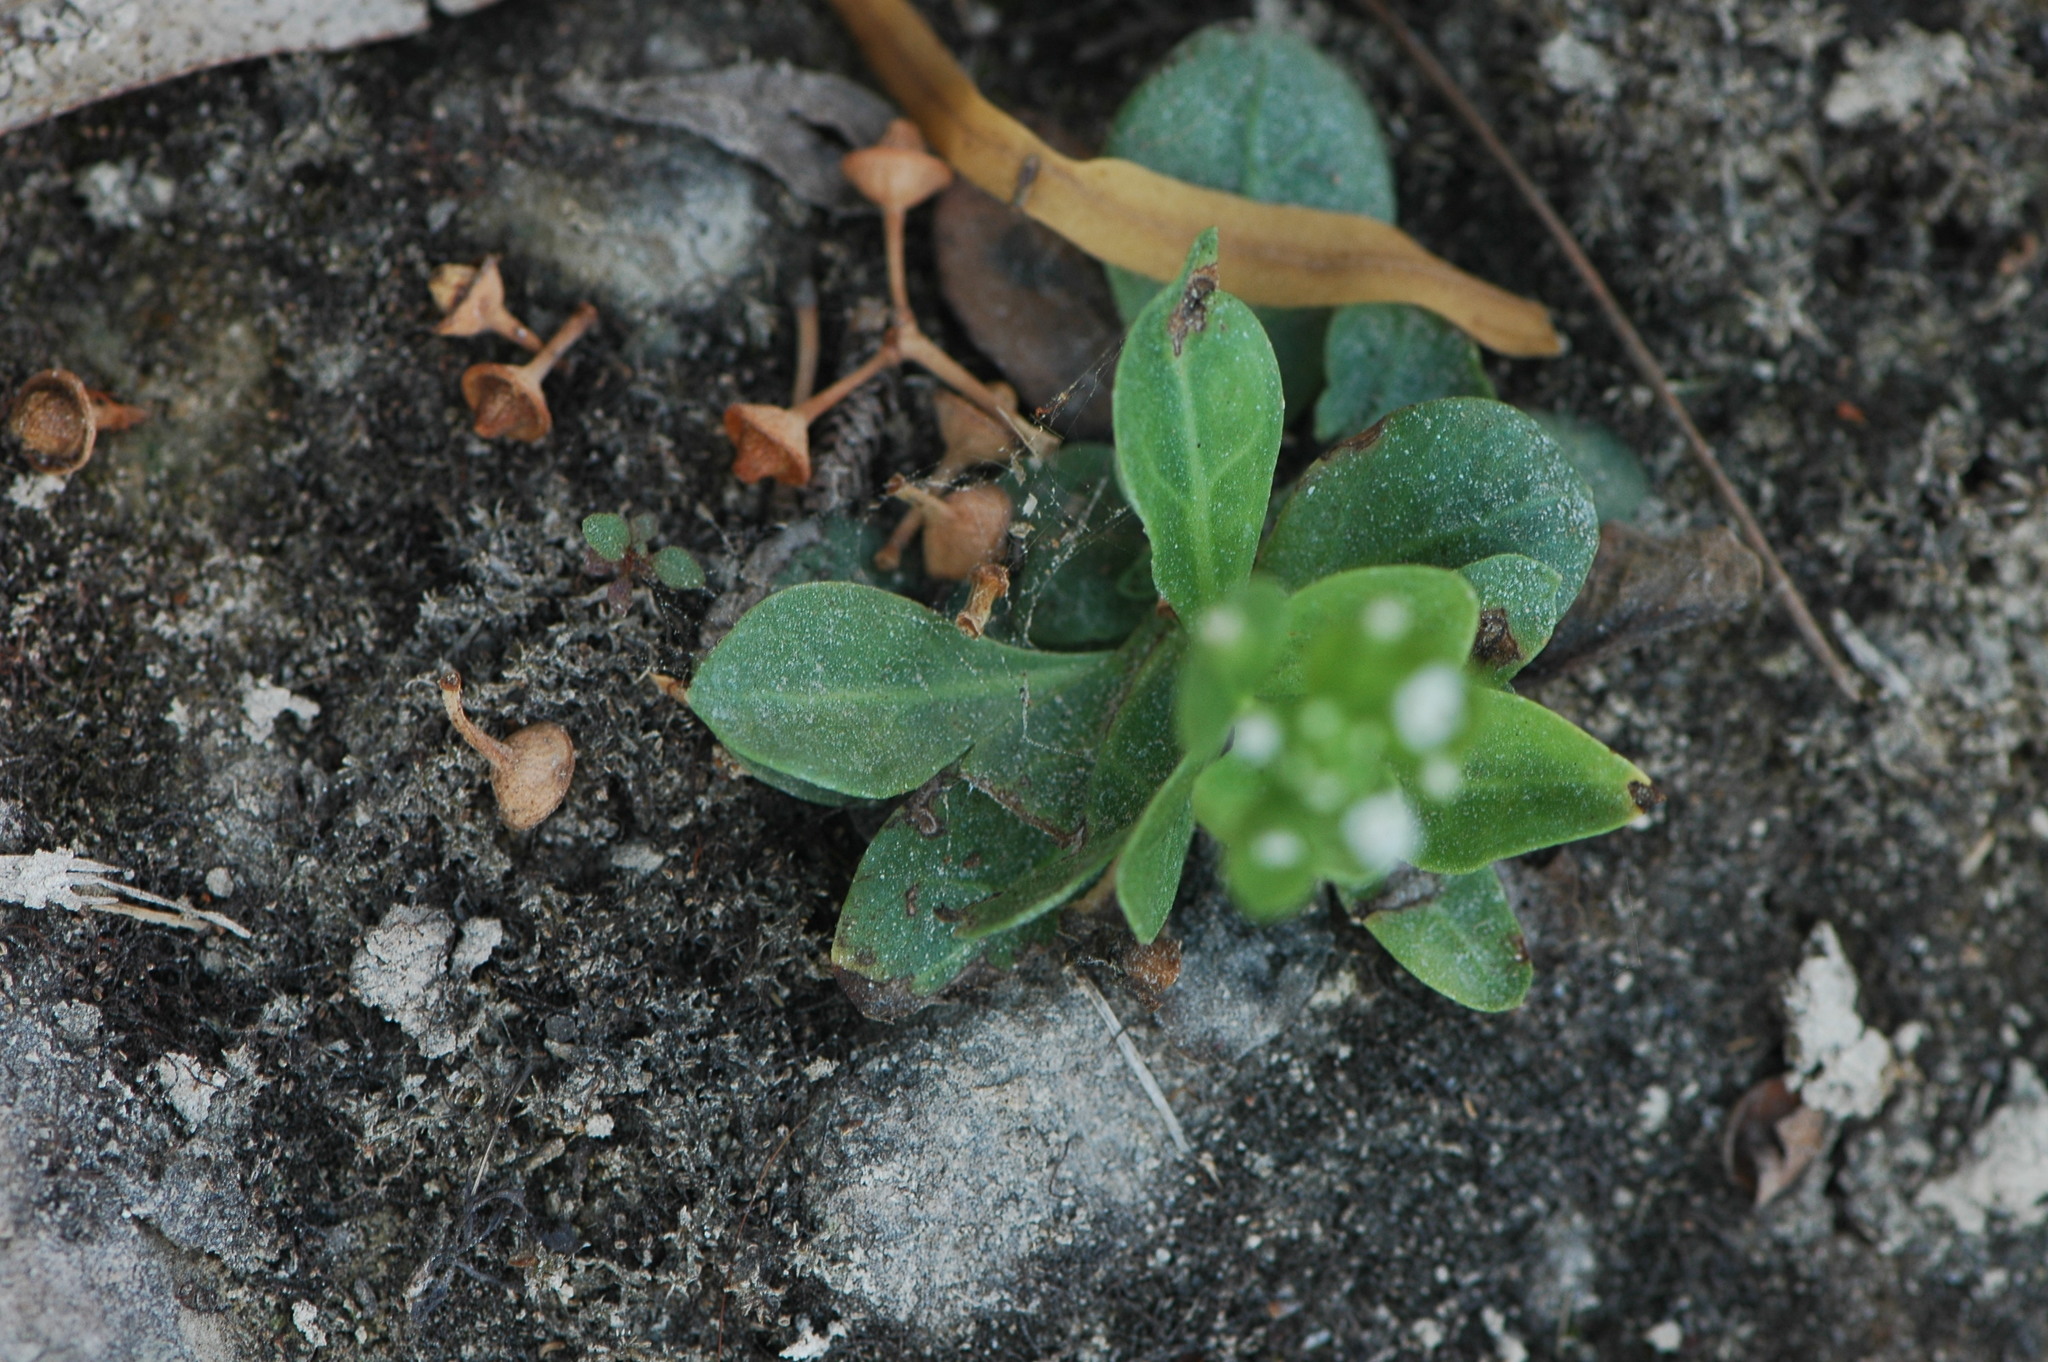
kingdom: Plantae
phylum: Tracheophyta
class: Magnoliopsida
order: Ericales
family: Primulaceae
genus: Samolus
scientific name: Samolus valerandi
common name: Brookweed
